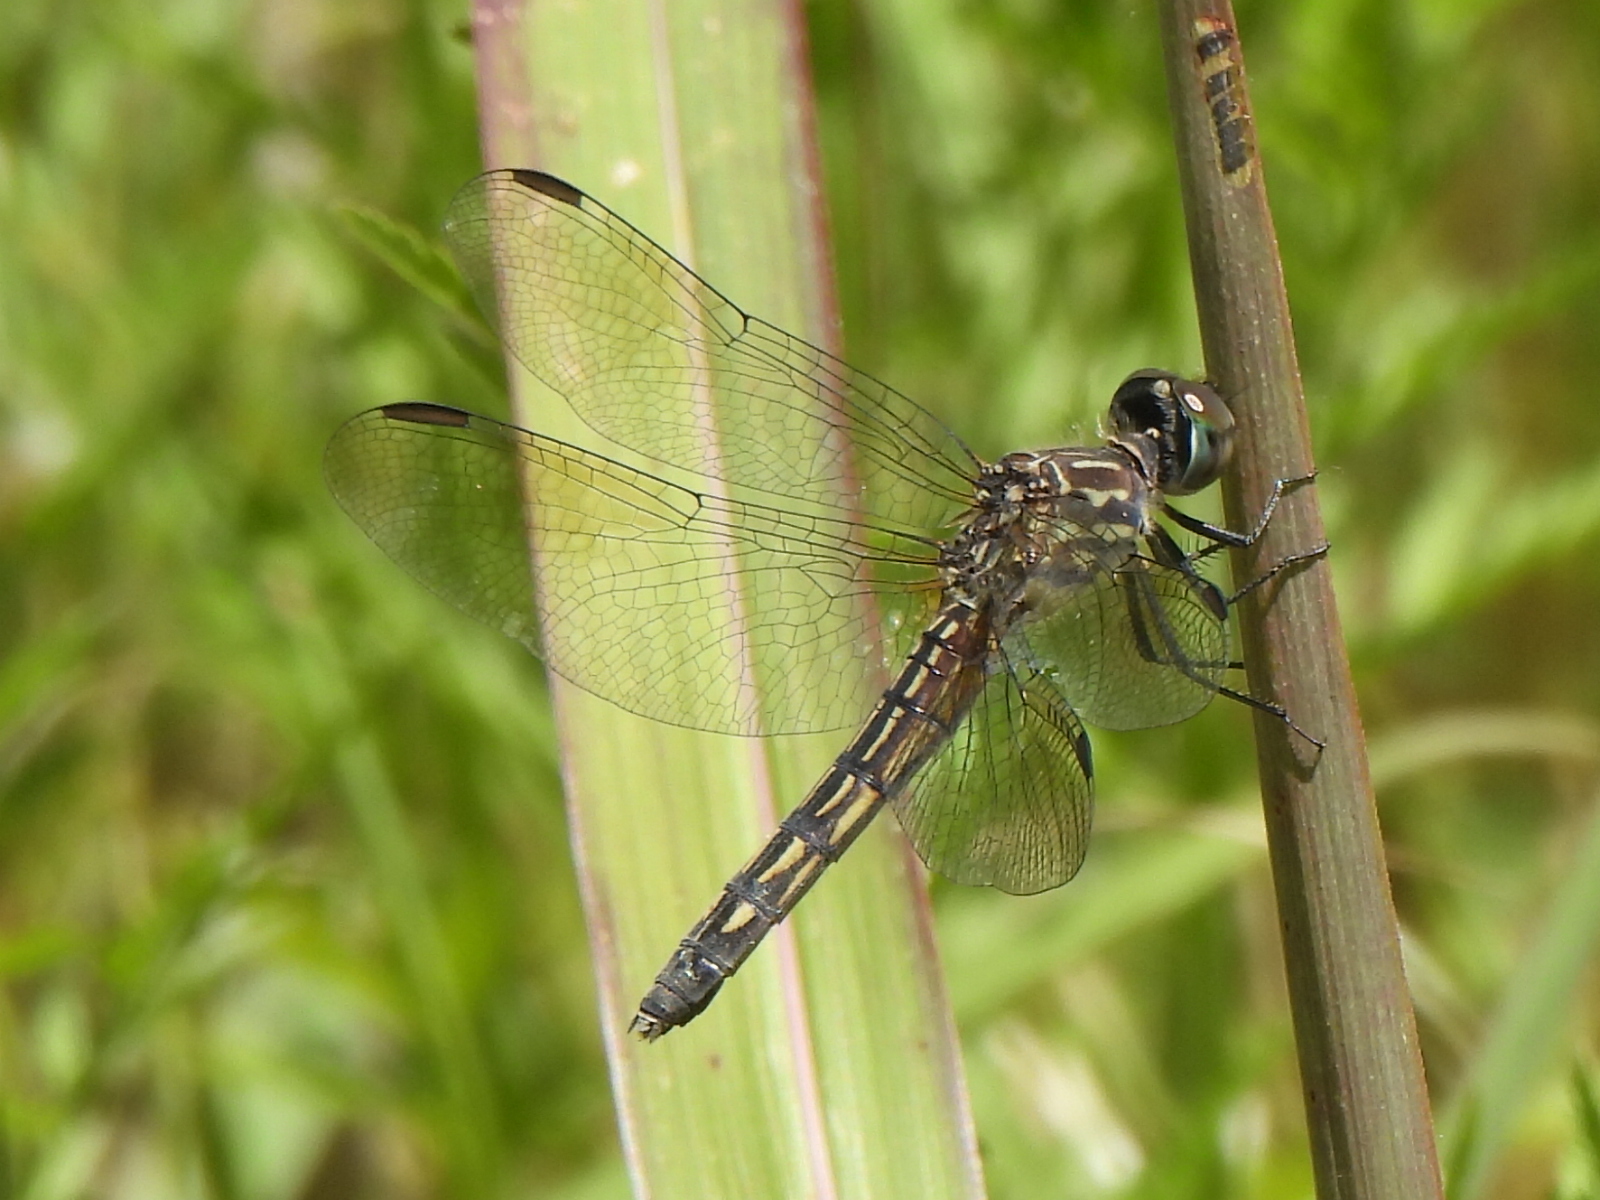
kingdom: Animalia
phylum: Arthropoda
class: Insecta
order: Odonata
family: Libellulidae
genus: Pachydiplax
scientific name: Pachydiplax longipennis
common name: Blue dasher
